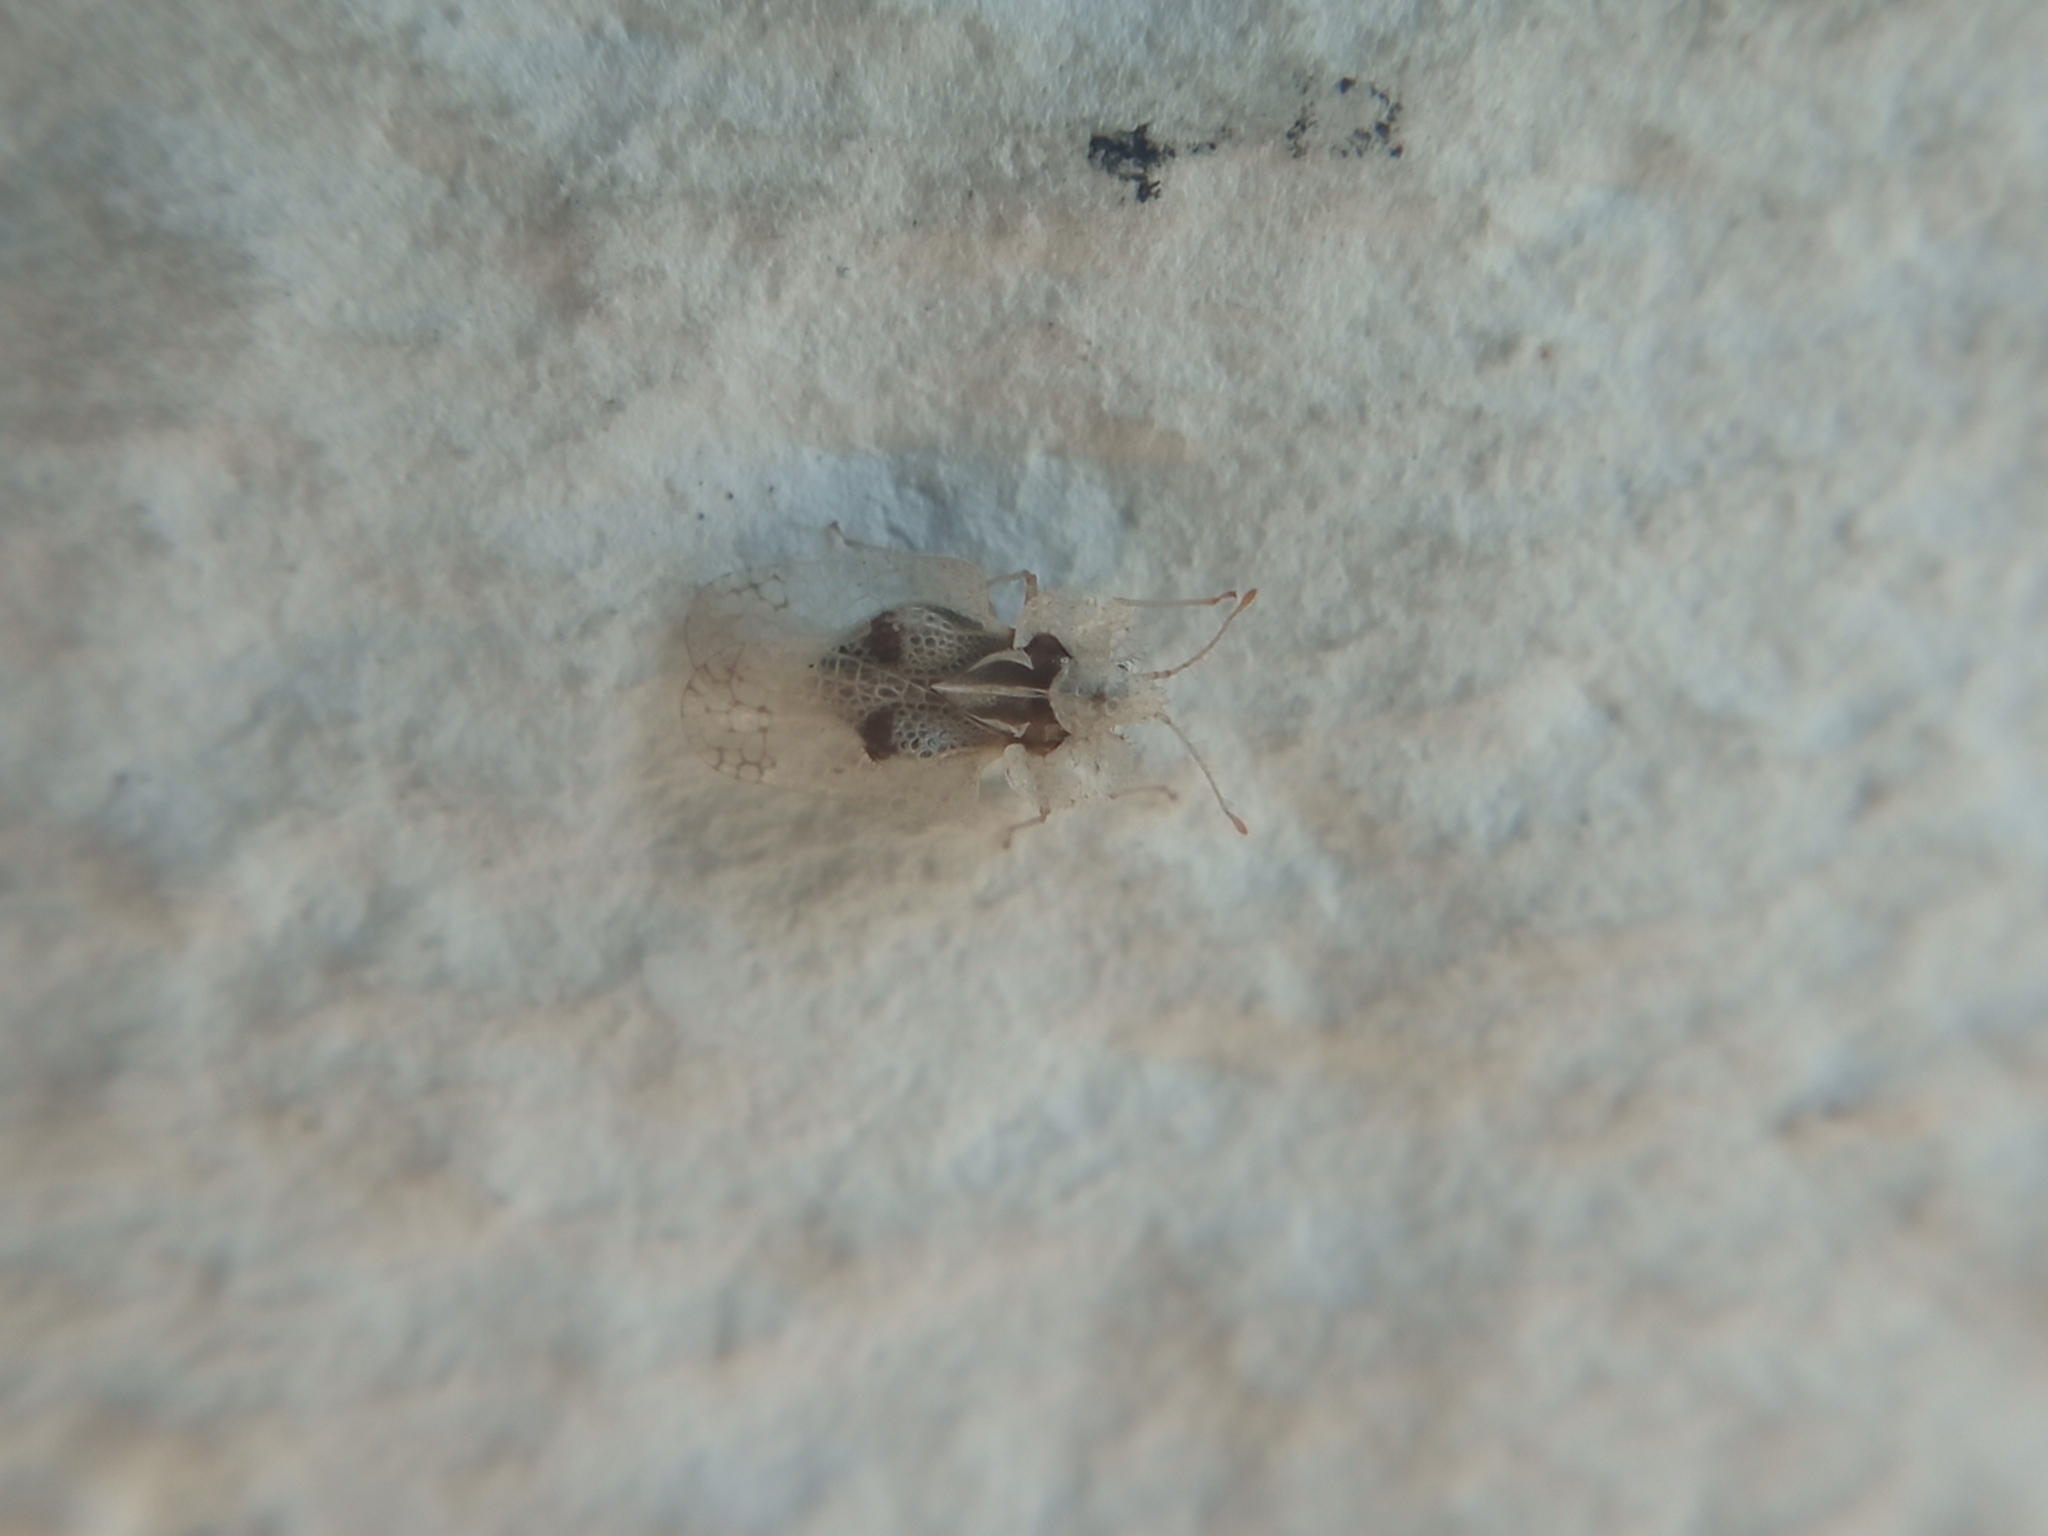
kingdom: Animalia
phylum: Arthropoda
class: Insecta
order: Hemiptera
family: Tingidae
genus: Corythucha
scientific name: Corythucha ciliata
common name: Sycamore lace bug
